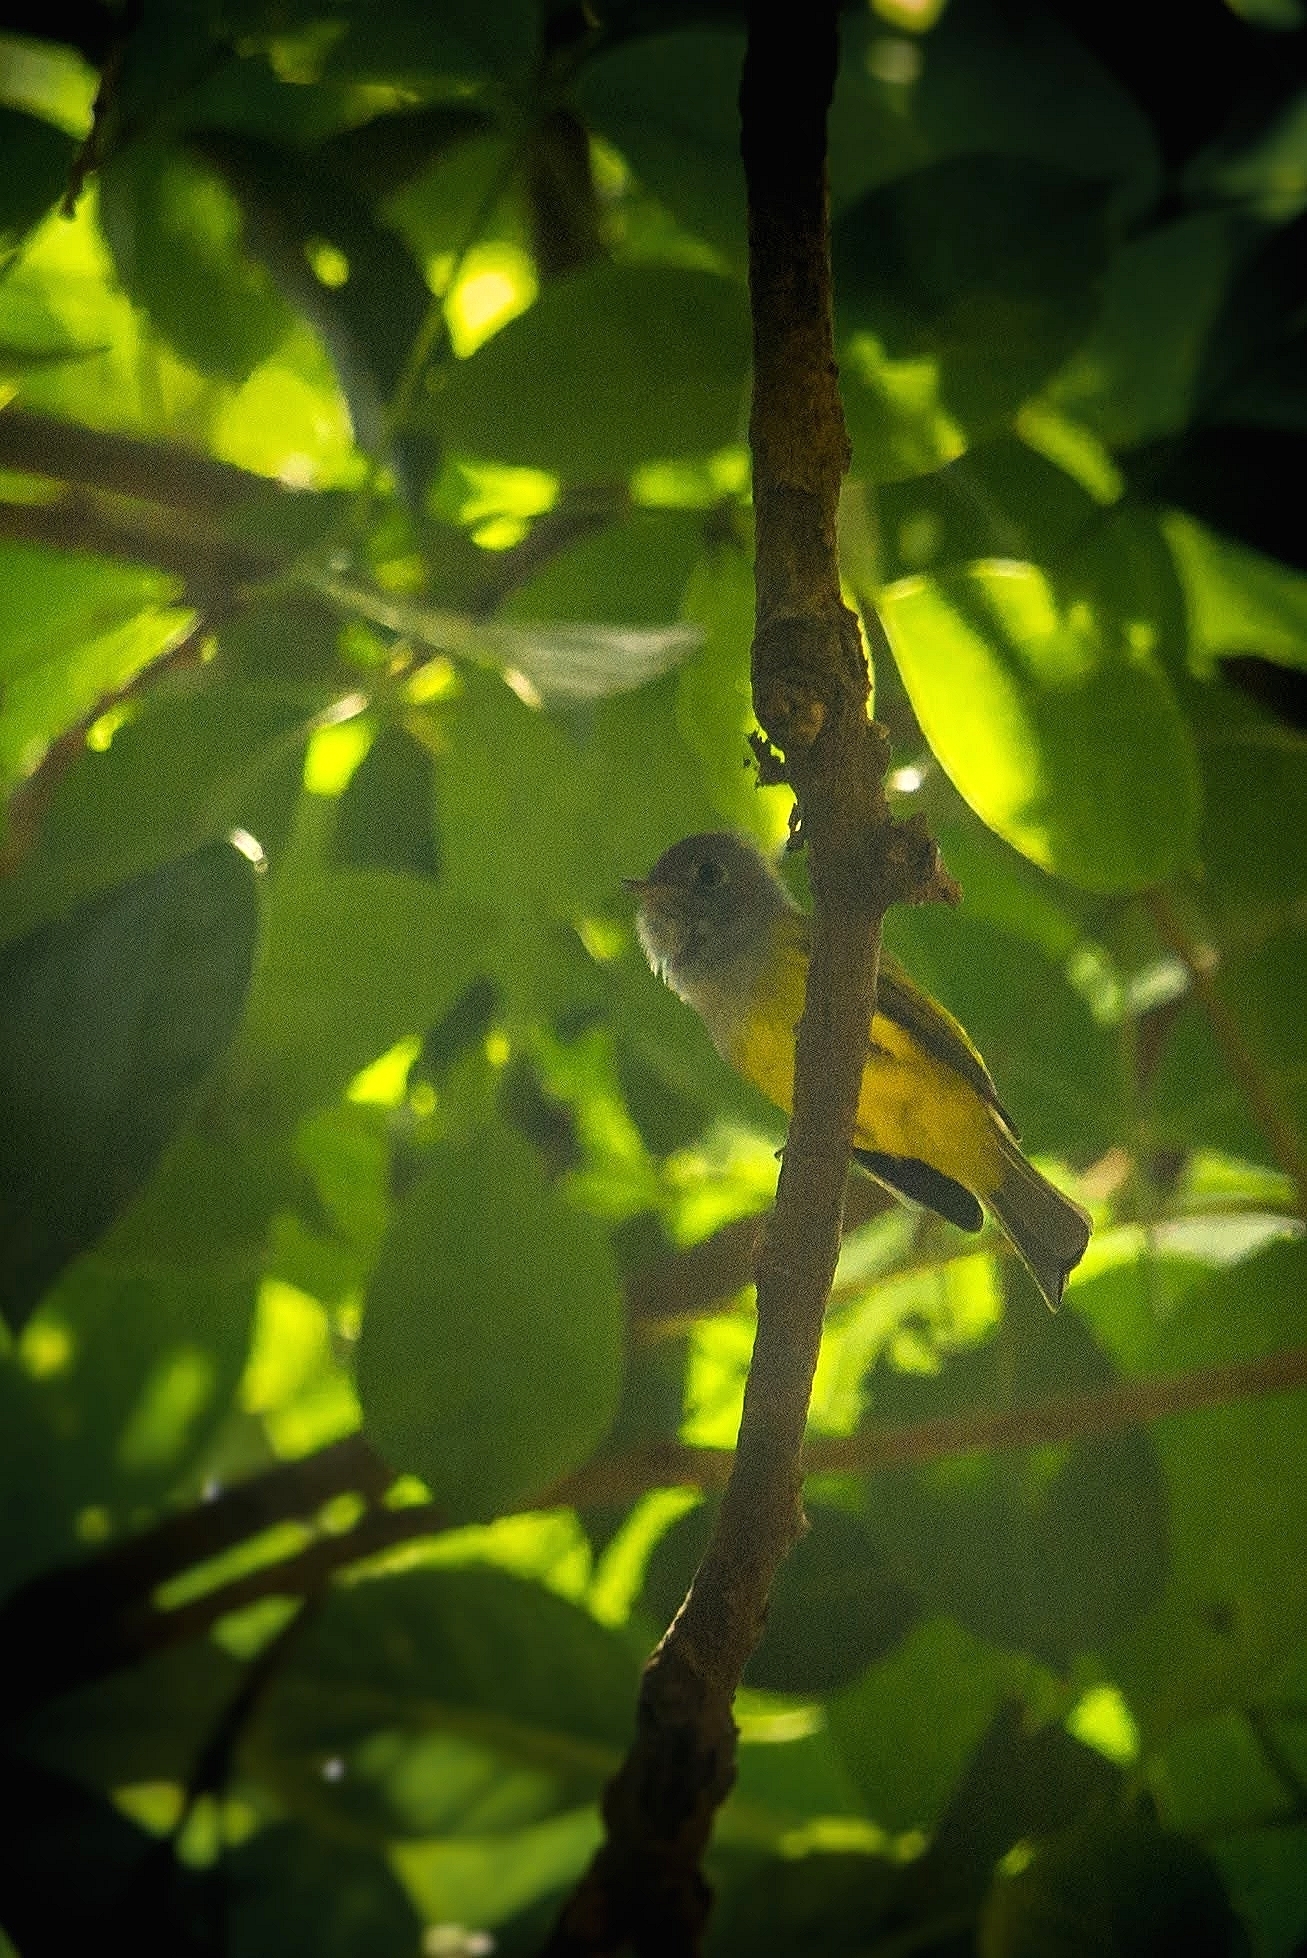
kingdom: Animalia
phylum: Chordata
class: Aves
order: Passeriformes
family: Stenostiridae
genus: Culicicapa
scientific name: Culicicapa ceylonensis
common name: Grey-headed canary-flycatcher
